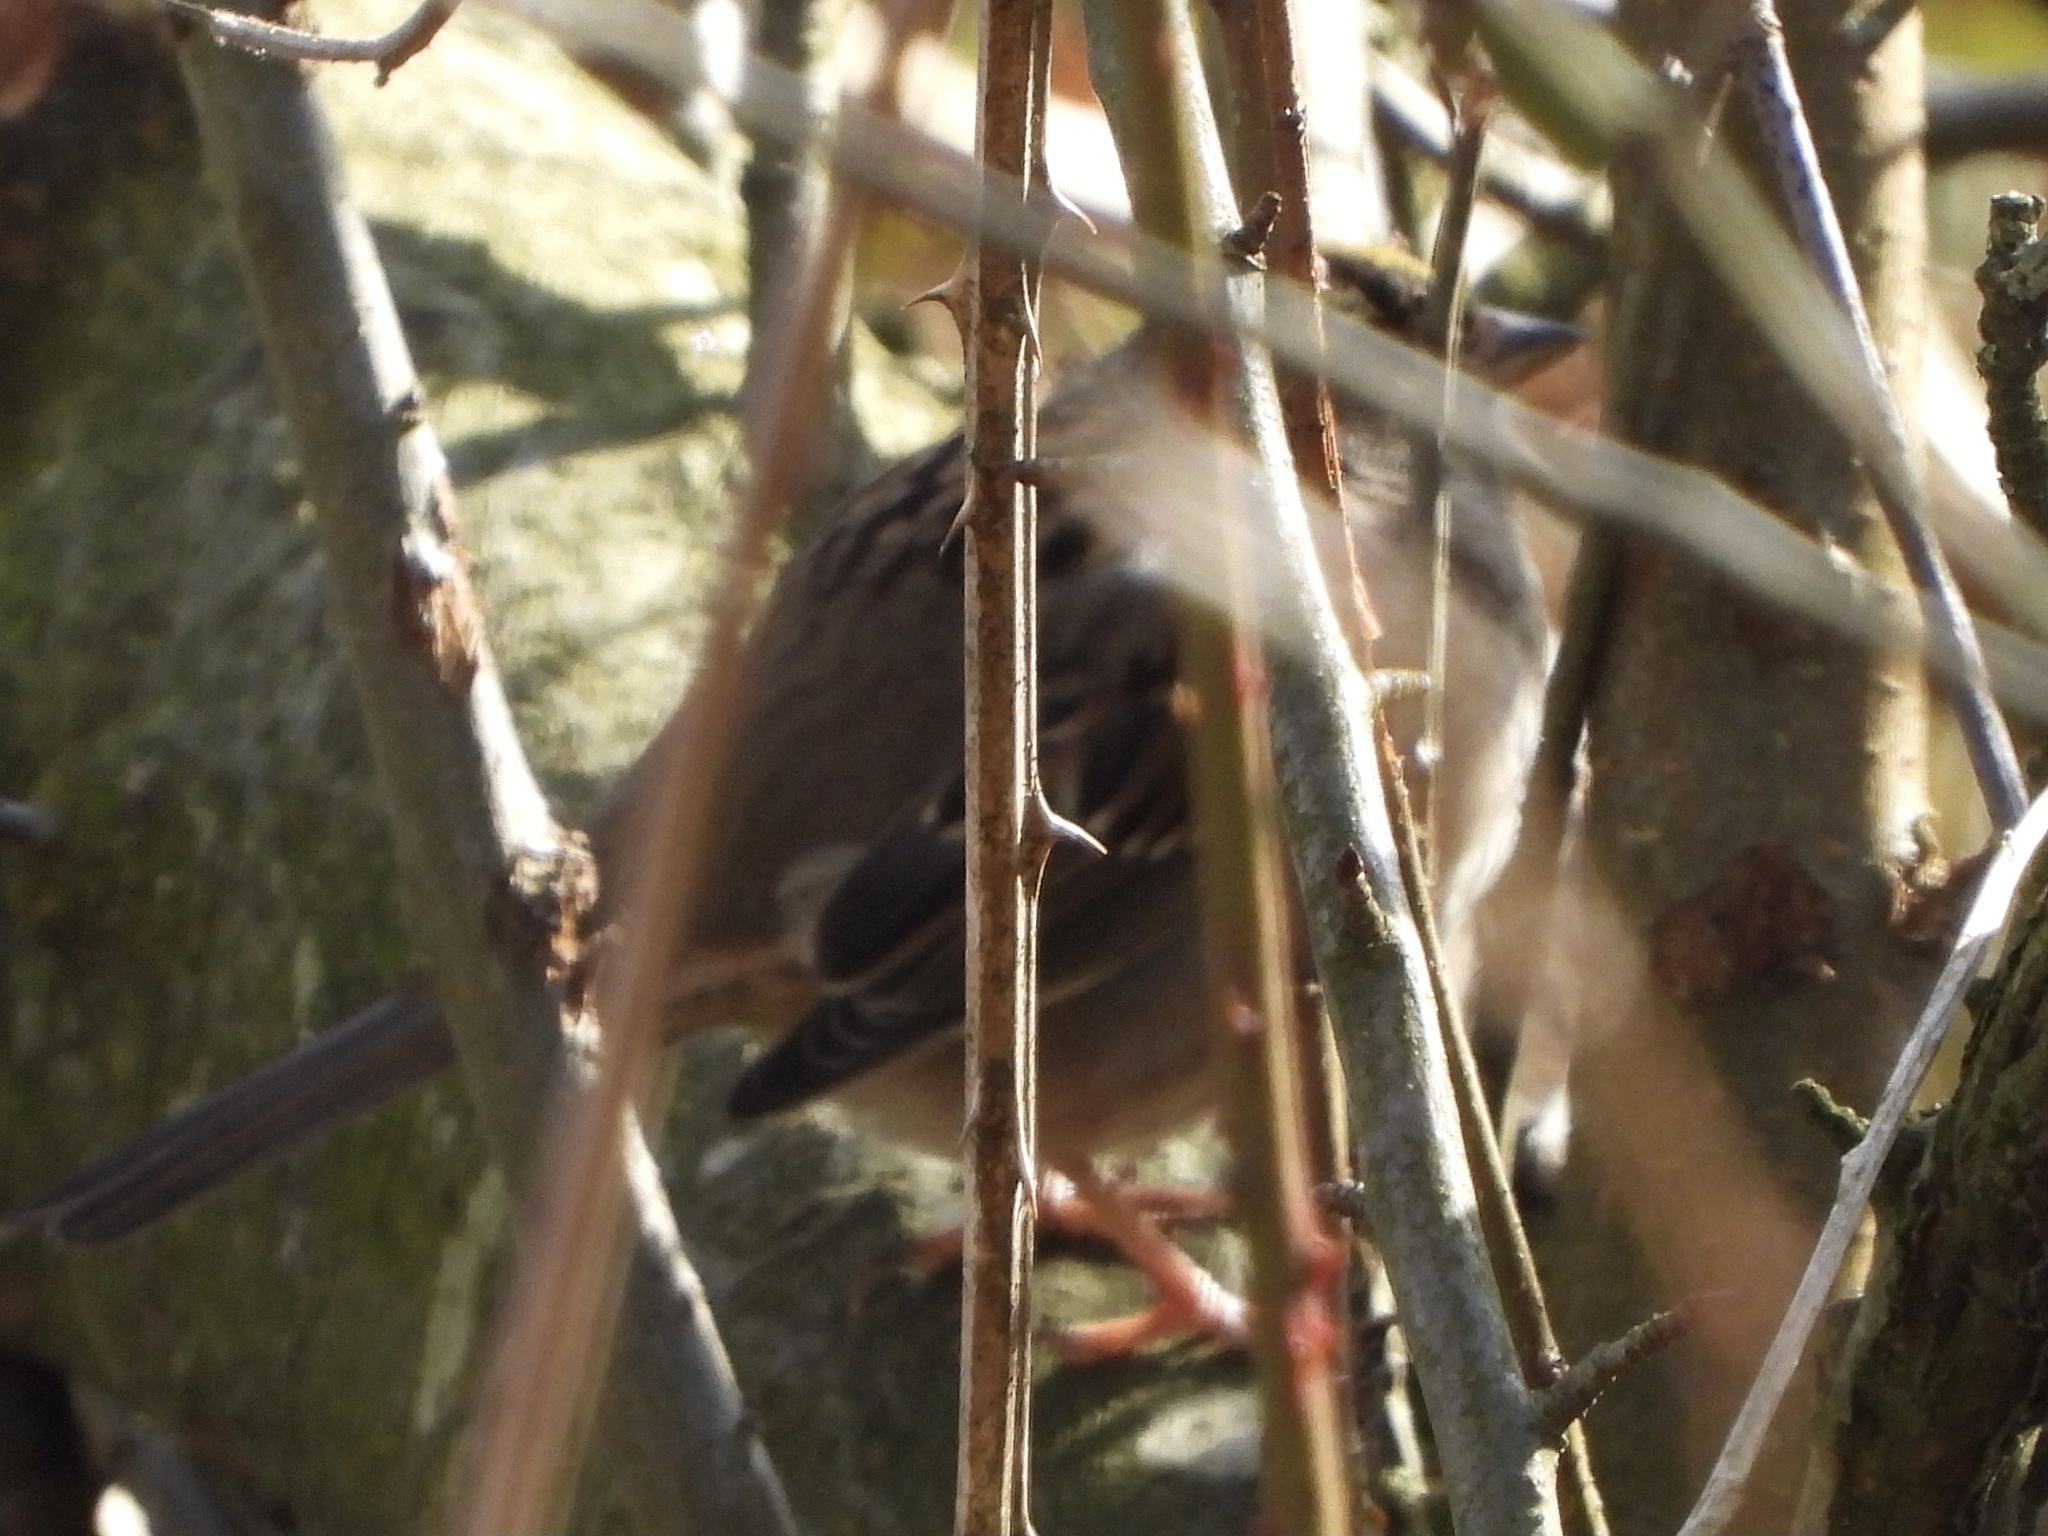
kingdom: Animalia
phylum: Chordata
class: Aves
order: Passeriformes
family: Passerellidae
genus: Zonotrichia
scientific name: Zonotrichia atricapilla
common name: Golden-crowned sparrow
